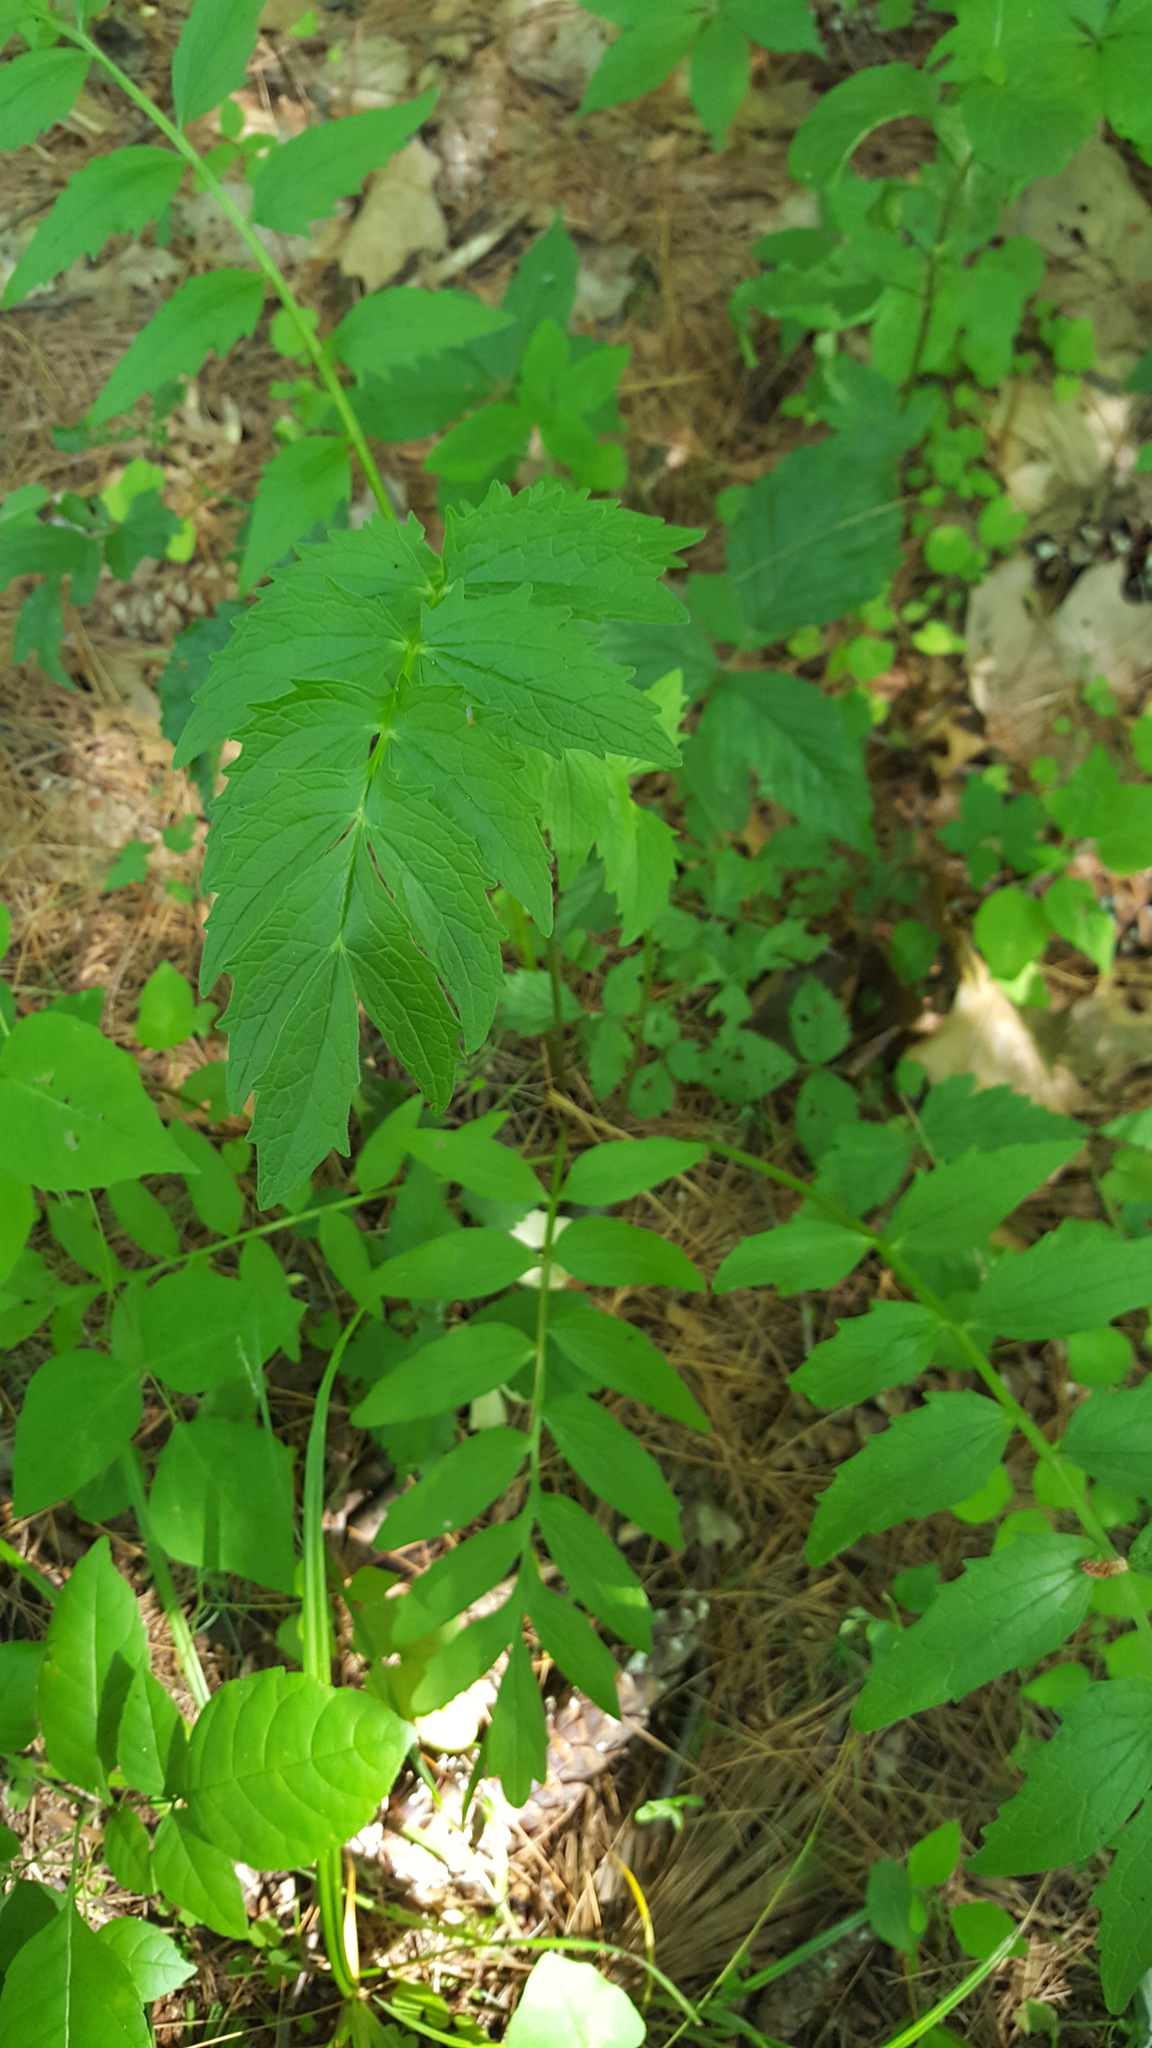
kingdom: Plantae
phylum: Tracheophyta
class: Magnoliopsida
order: Dipsacales
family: Caprifoliaceae
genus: Valeriana
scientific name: Valeriana officinalis
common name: Common valerian
